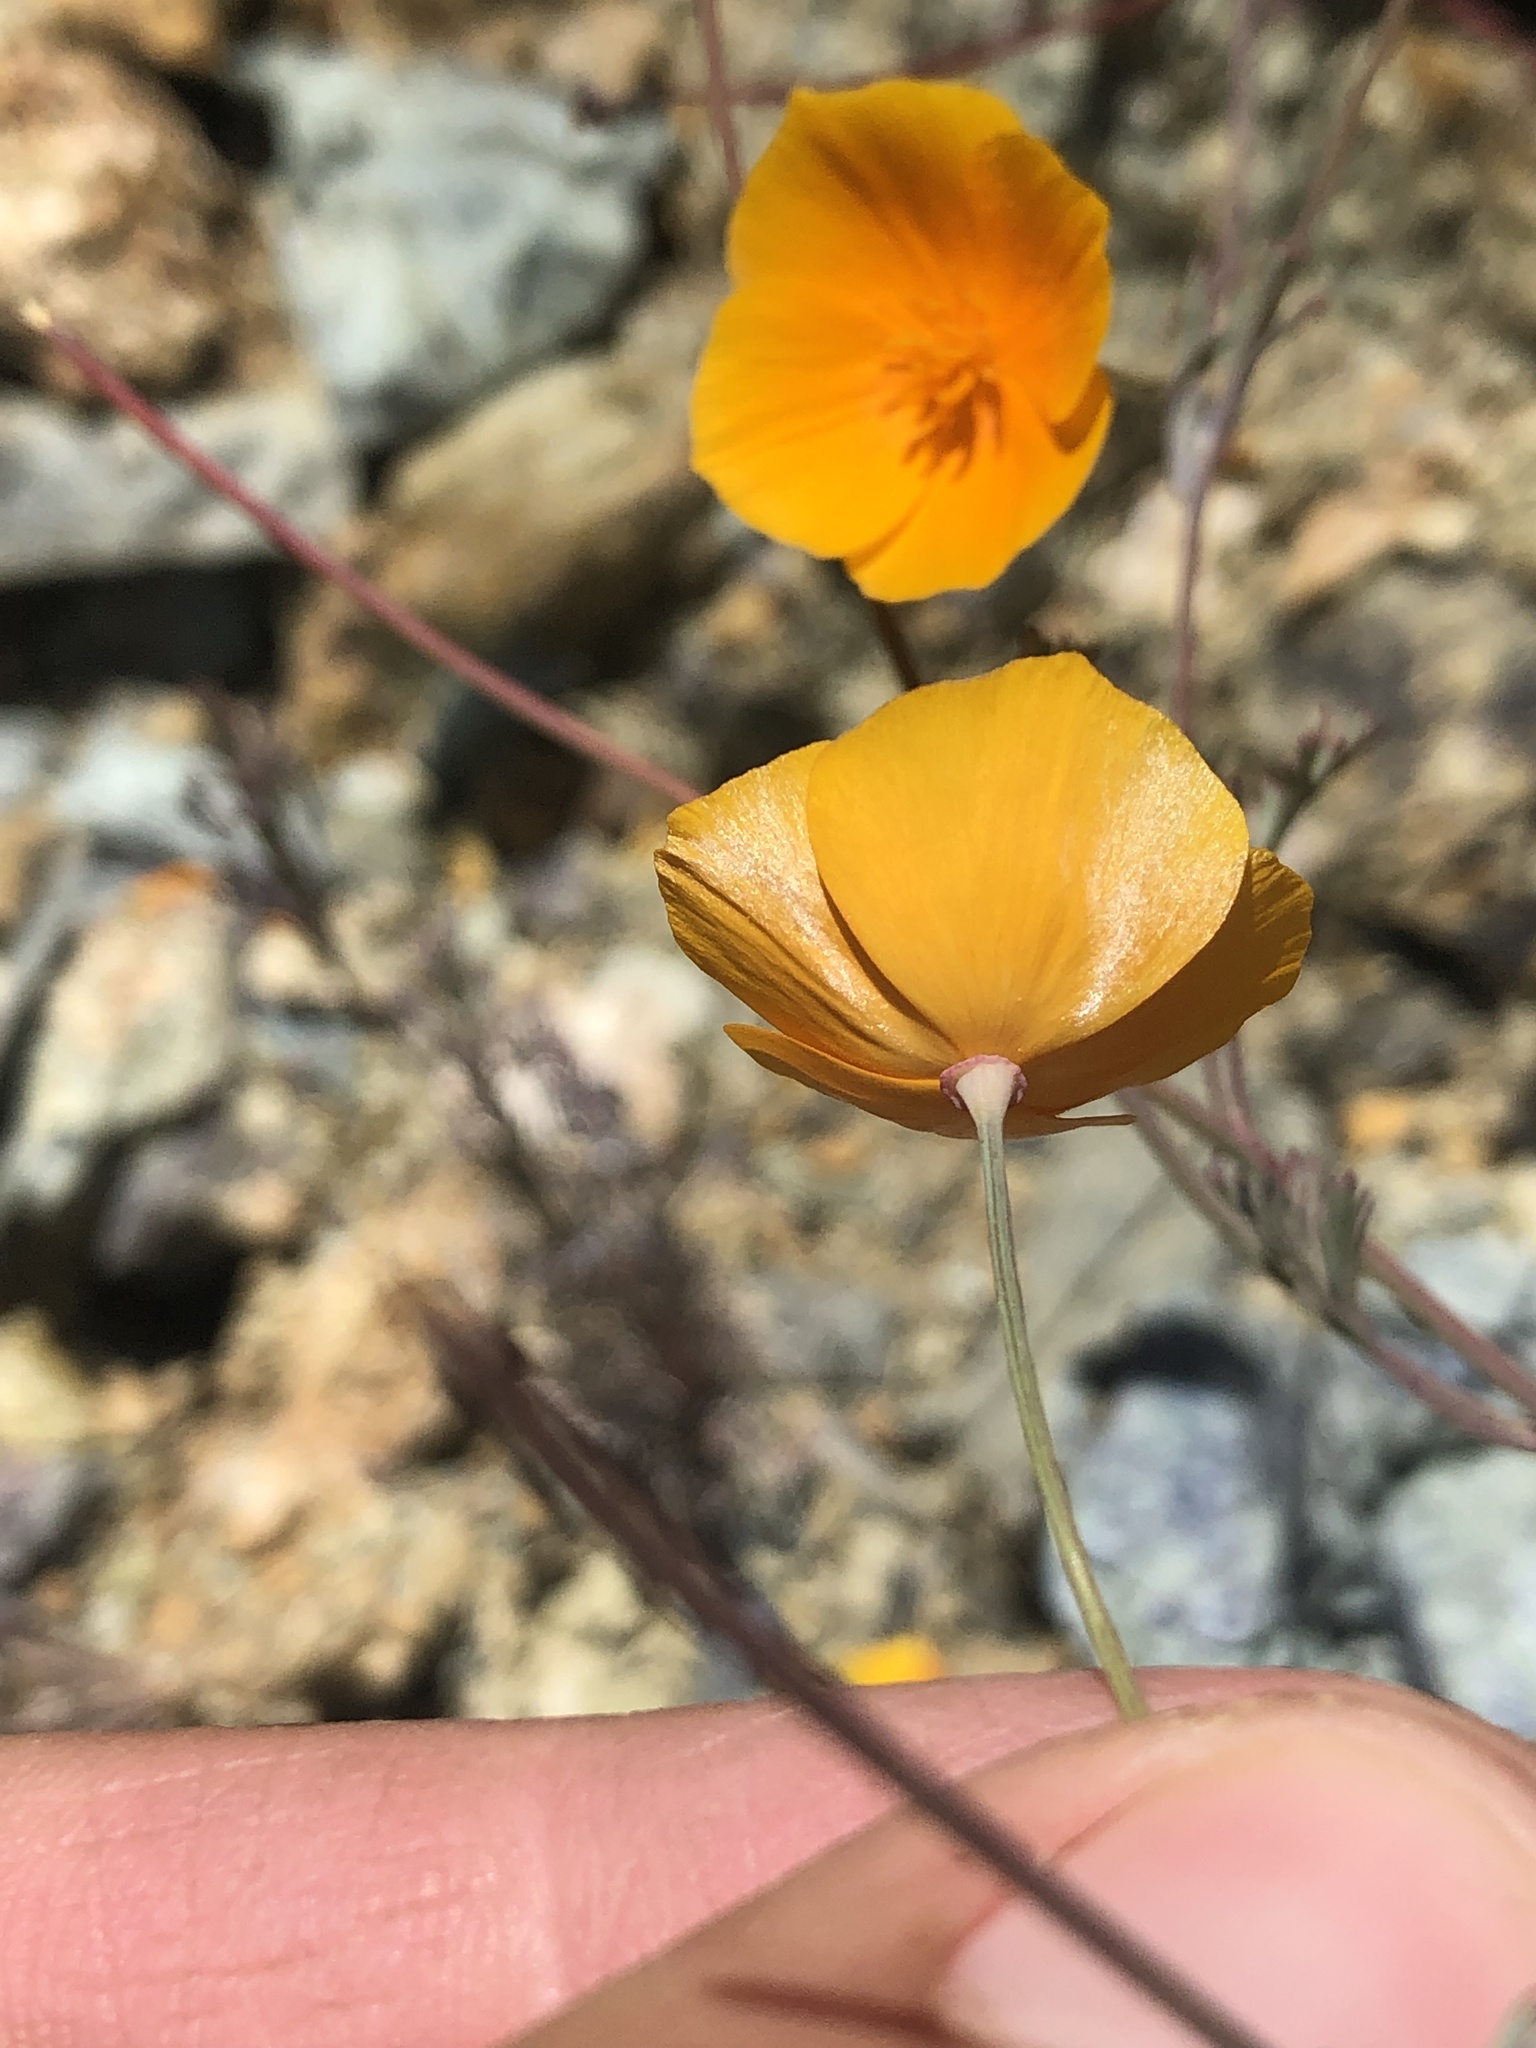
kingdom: Plantae
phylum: Tracheophyta
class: Magnoliopsida
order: Ranunculales
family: Papaveraceae
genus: Eschscholzia
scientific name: Eschscholzia californica
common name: California poppy
